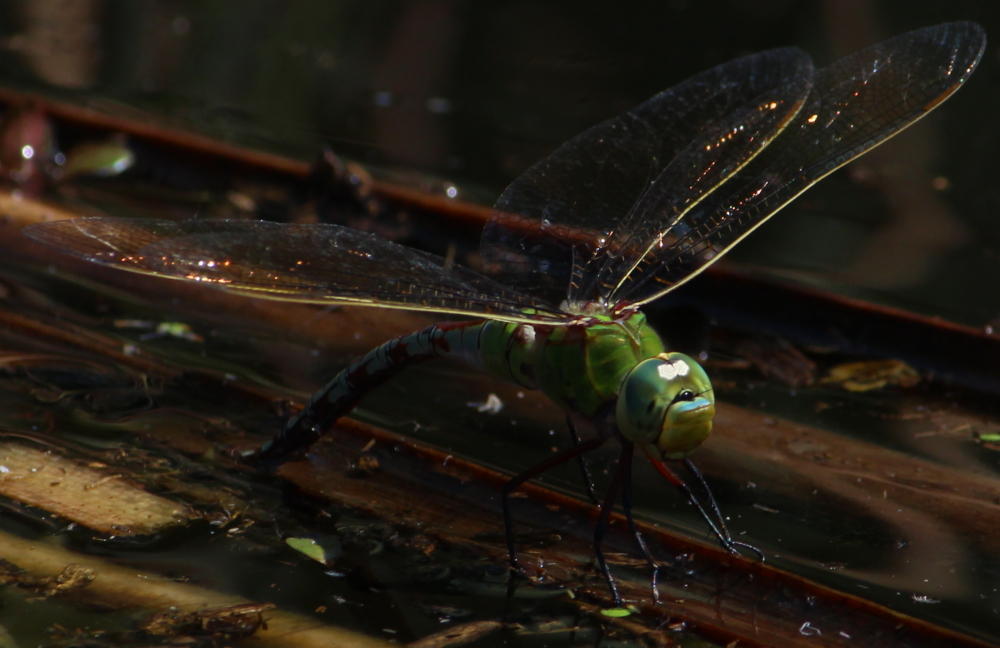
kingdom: Animalia
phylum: Arthropoda
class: Insecta
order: Odonata
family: Aeshnidae
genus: Anax
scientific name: Anax imperator
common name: Emperor dragonfly
